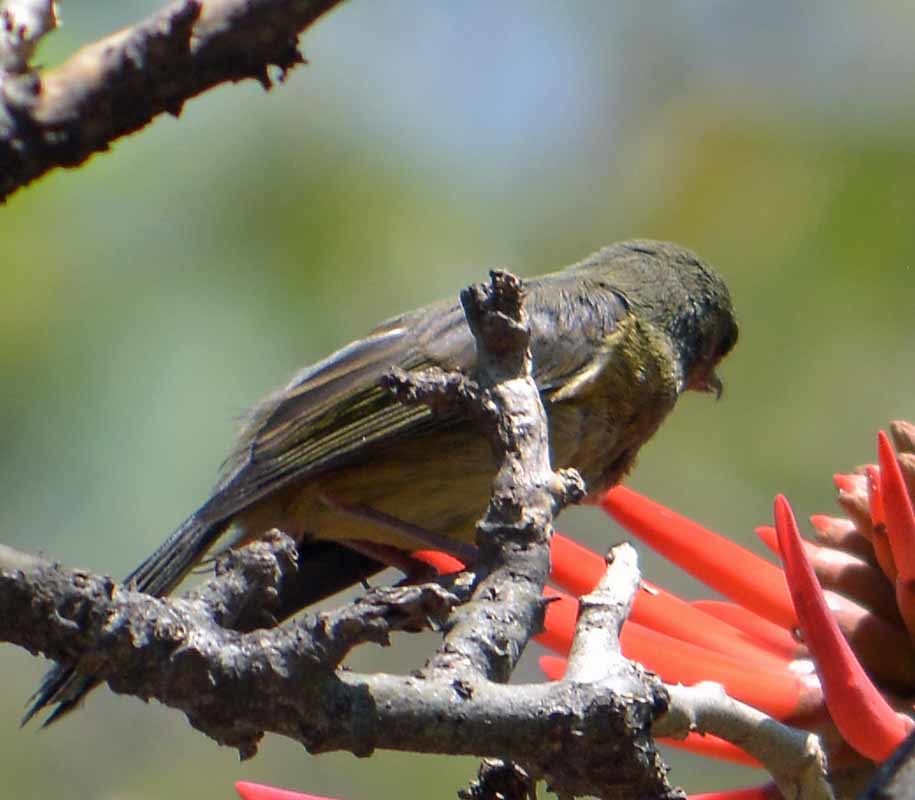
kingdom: Animalia
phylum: Chordata
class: Aves
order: Passeriformes
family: Thraupidae
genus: Diglossa
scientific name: Diglossa baritula
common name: Cinnamon-bellied flowerpiercer
